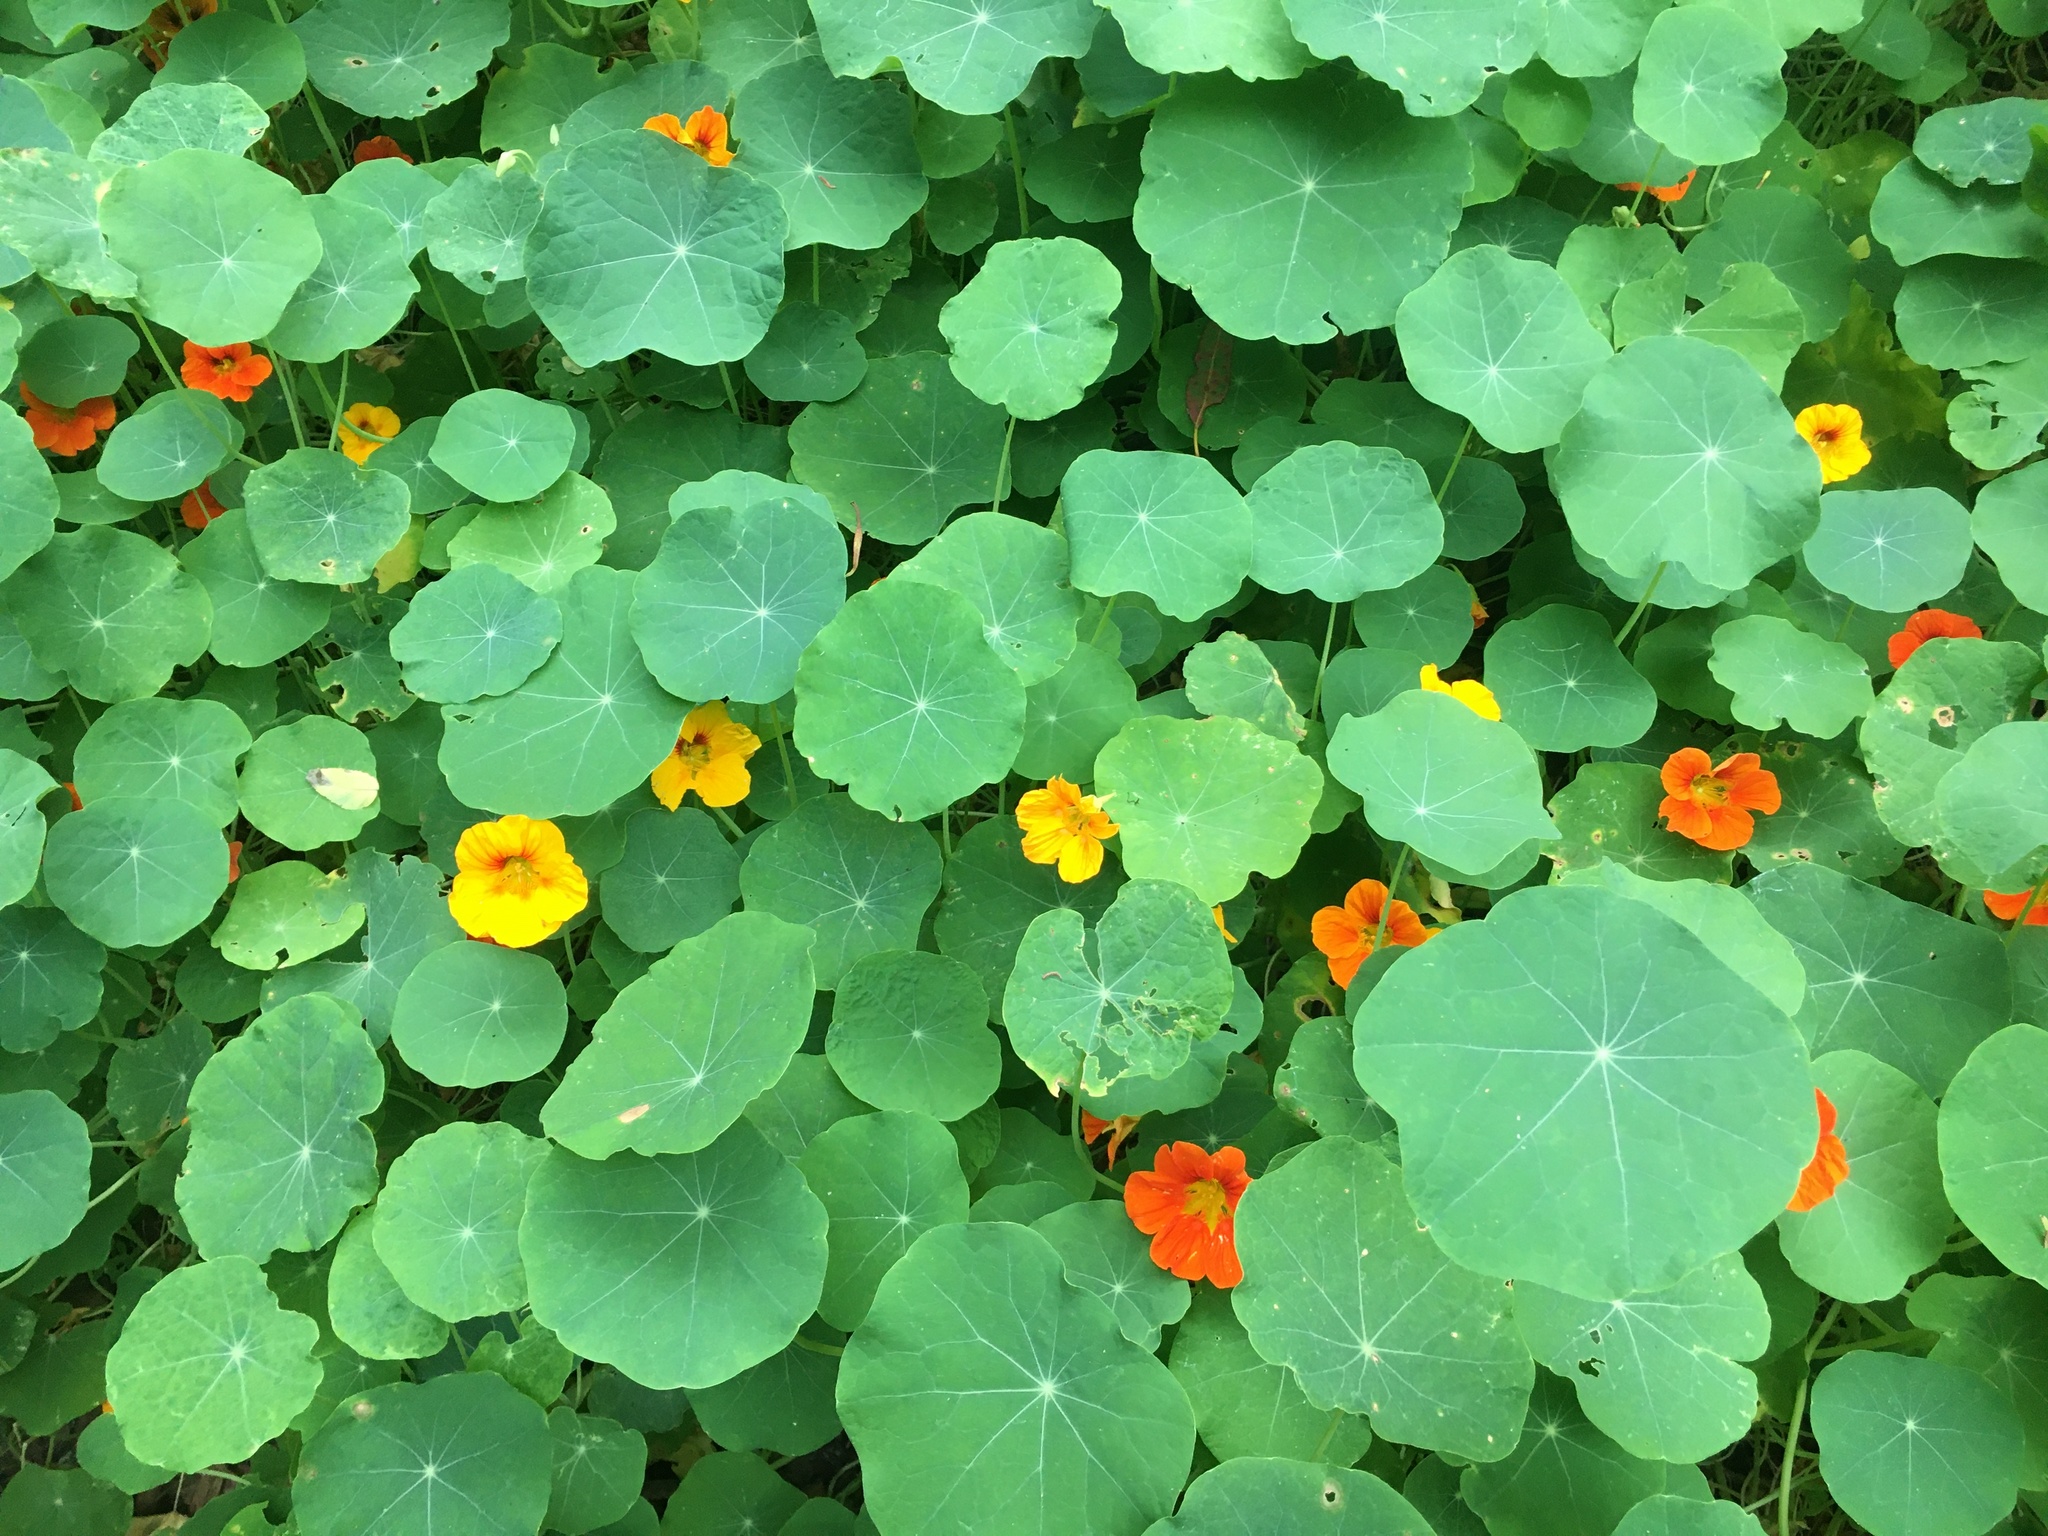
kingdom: Plantae
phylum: Tracheophyta
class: Magnoliopsida
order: Brassicales
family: Tropaeolaceae
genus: Tropaeolum
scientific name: Tropaeolum majus
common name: Nasturtium
